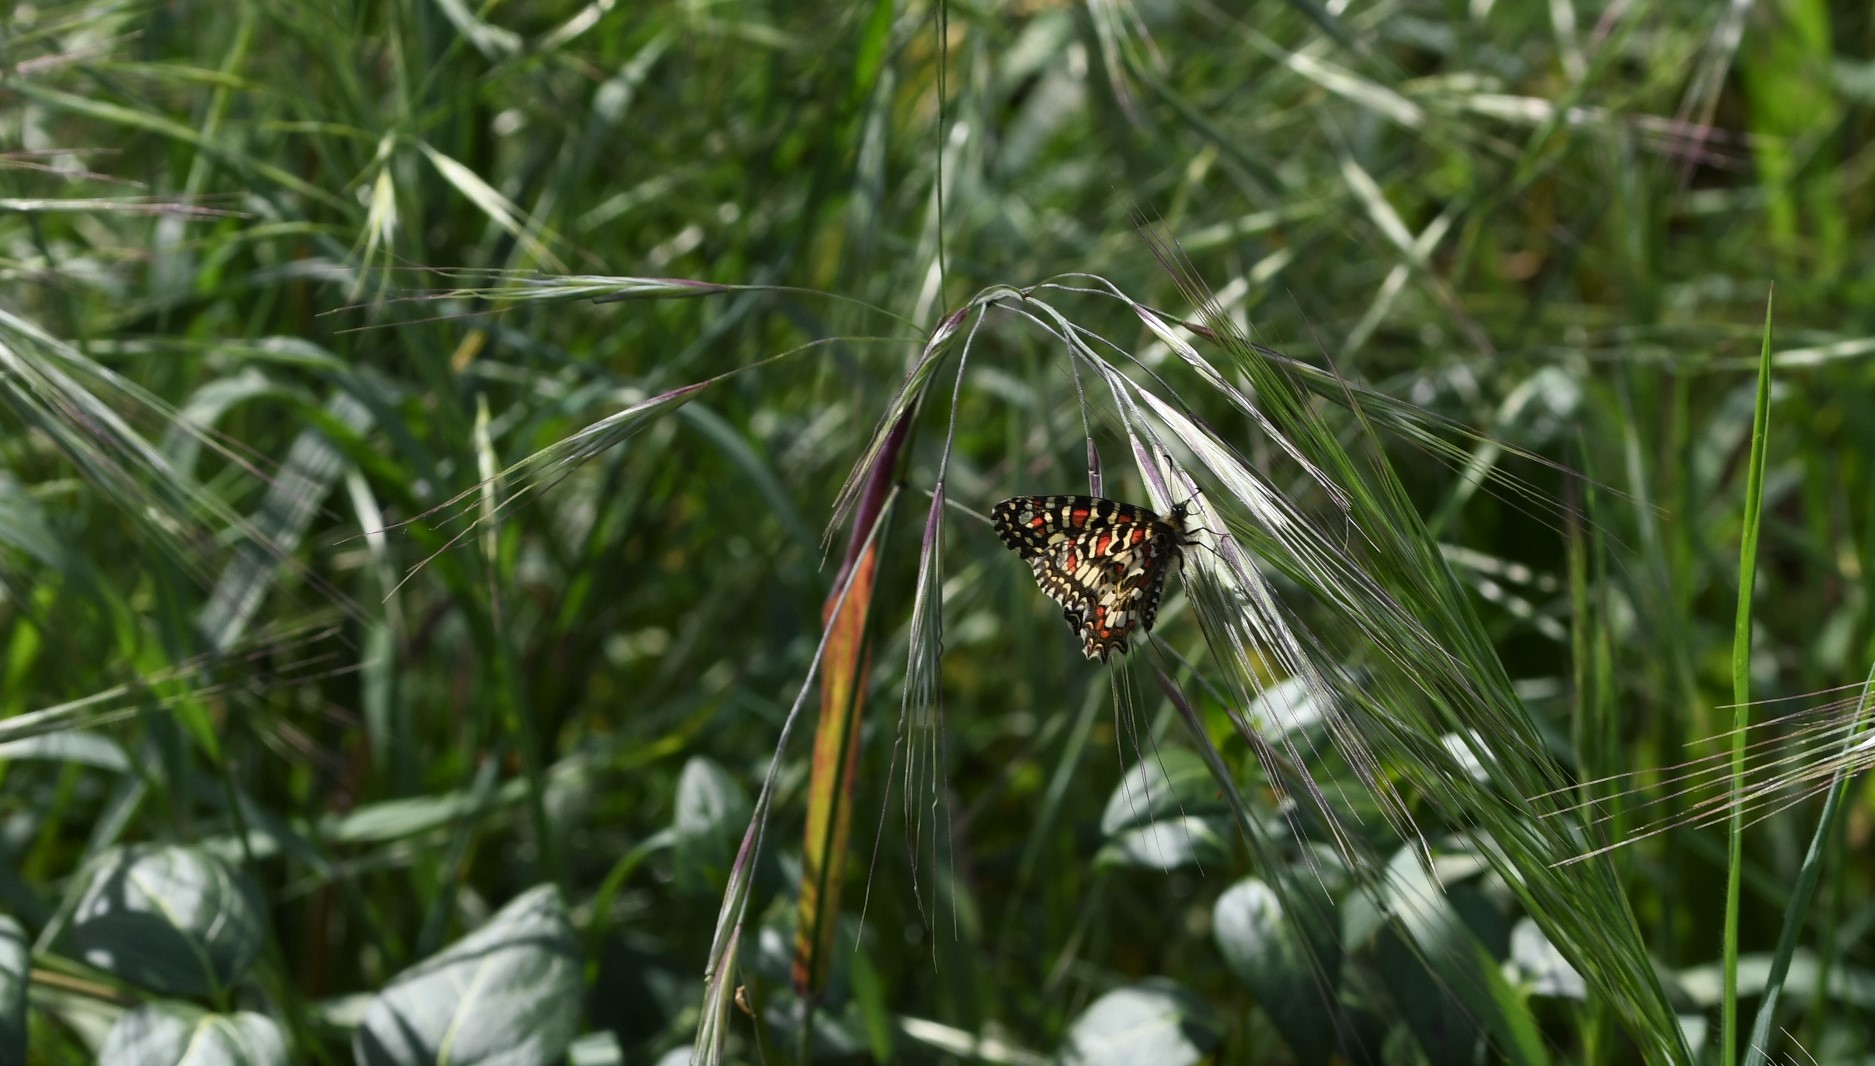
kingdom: Animalia
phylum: Arthropoda
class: Insecta
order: Lepidoptera
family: Papilionidae
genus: Zerynthia
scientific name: Zerynthia rumina
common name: Spanish festoon
